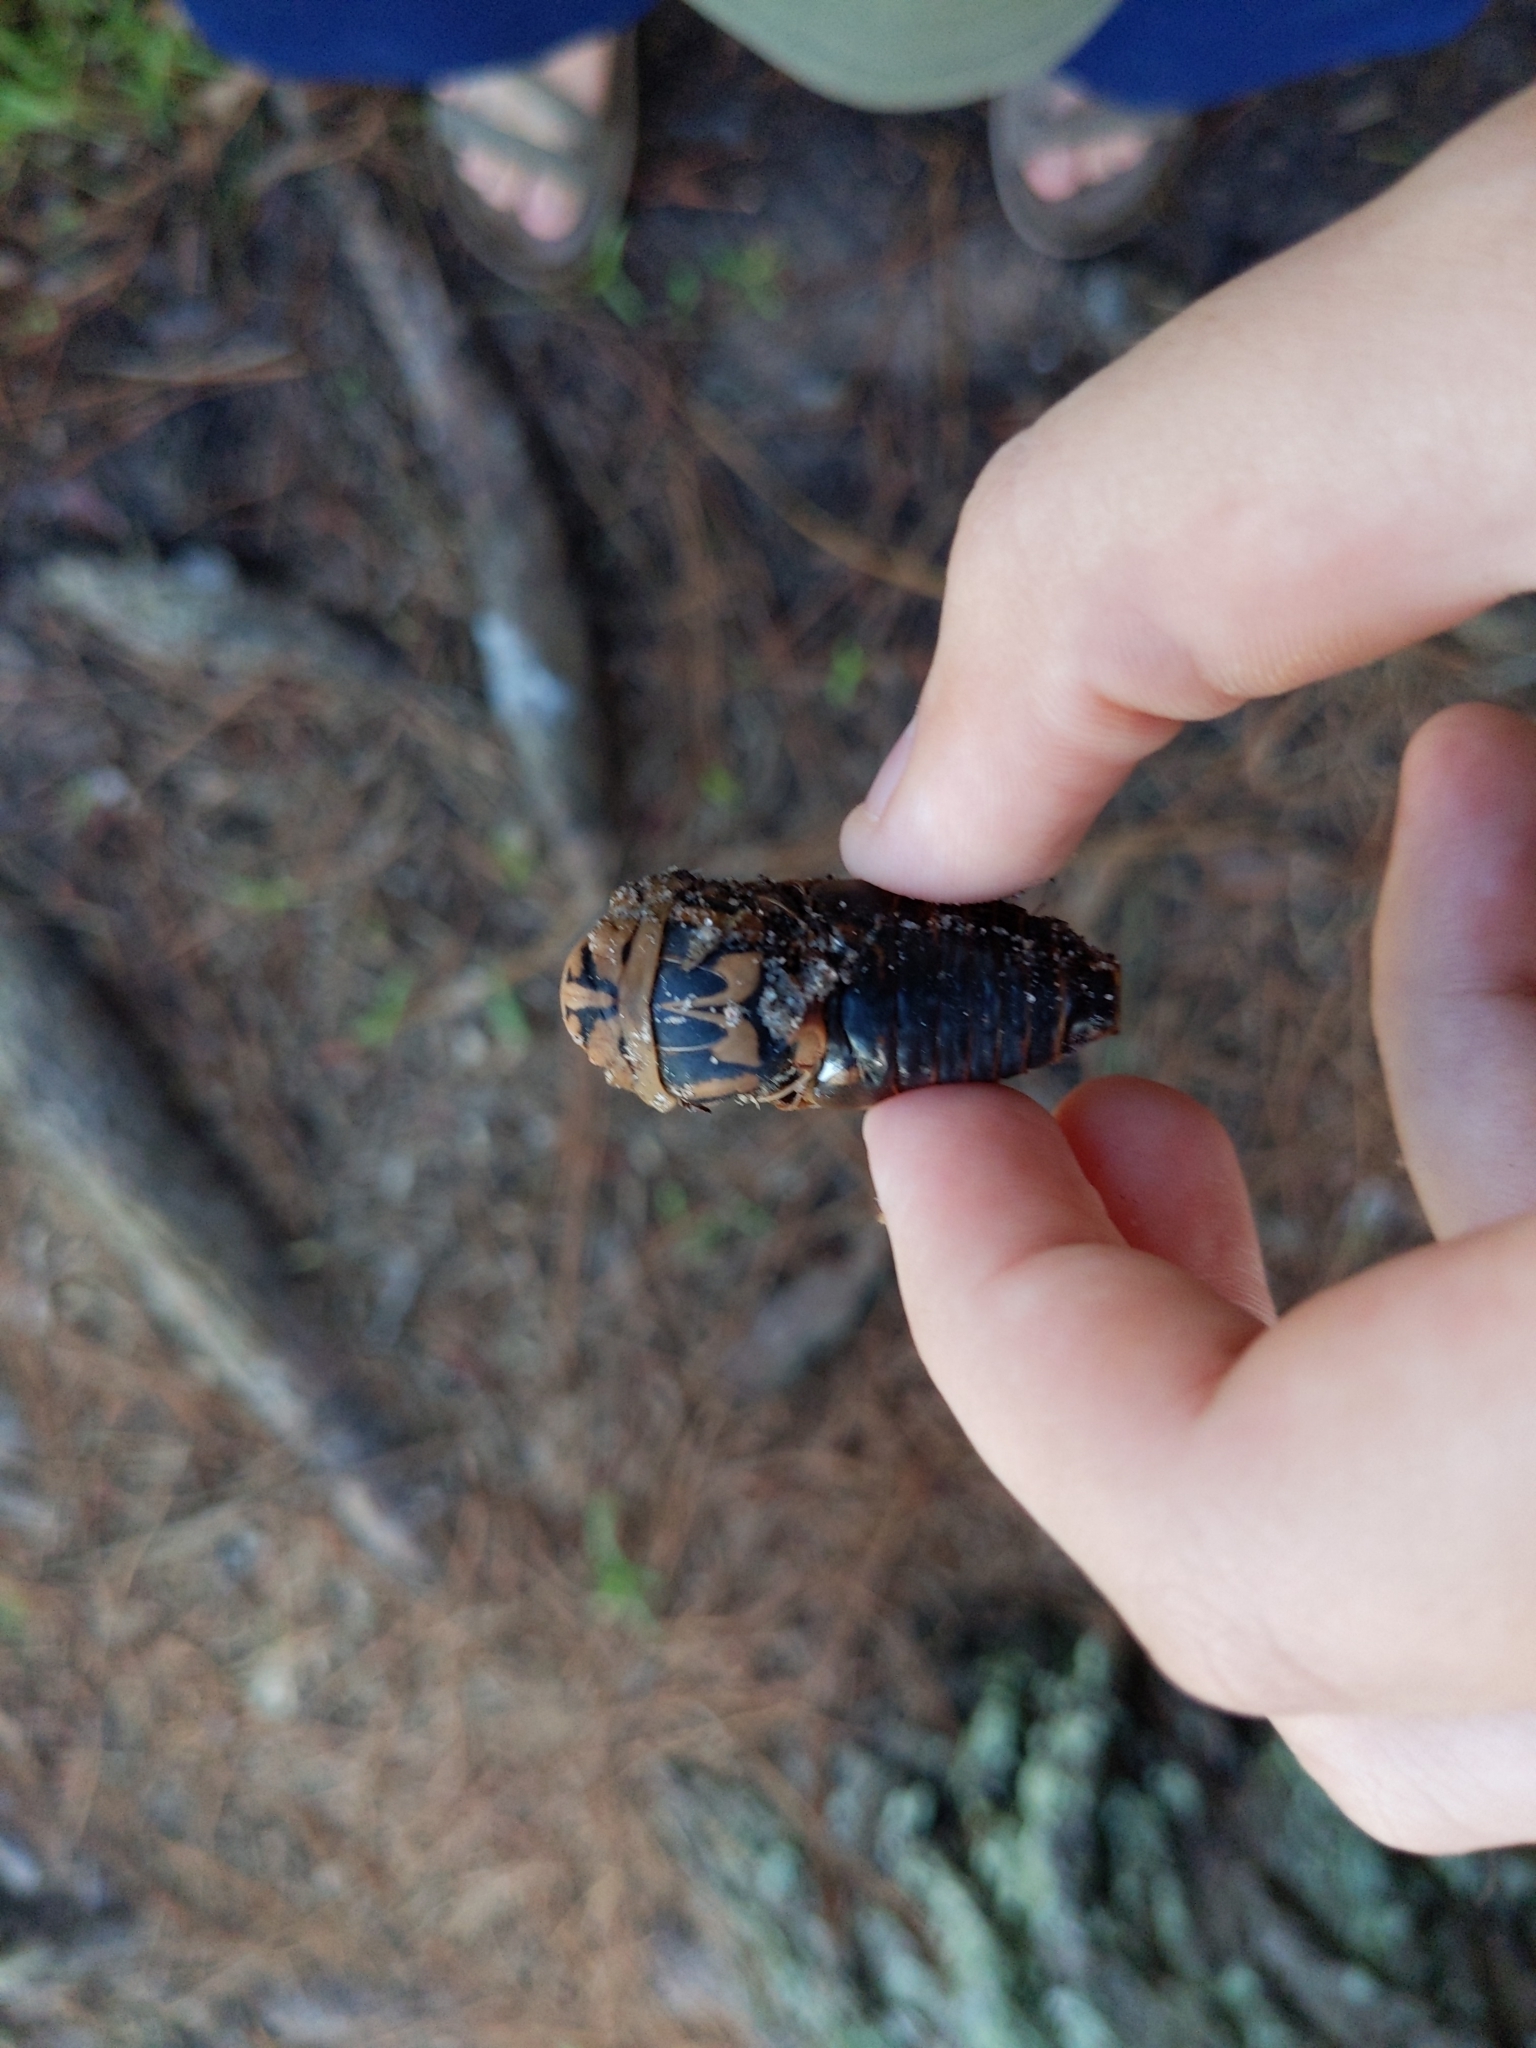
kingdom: Animalia
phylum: Arthropoda
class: Insecta
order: Hemiptera
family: Cicadidae
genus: Megatibicen
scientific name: Megatibicen resh
